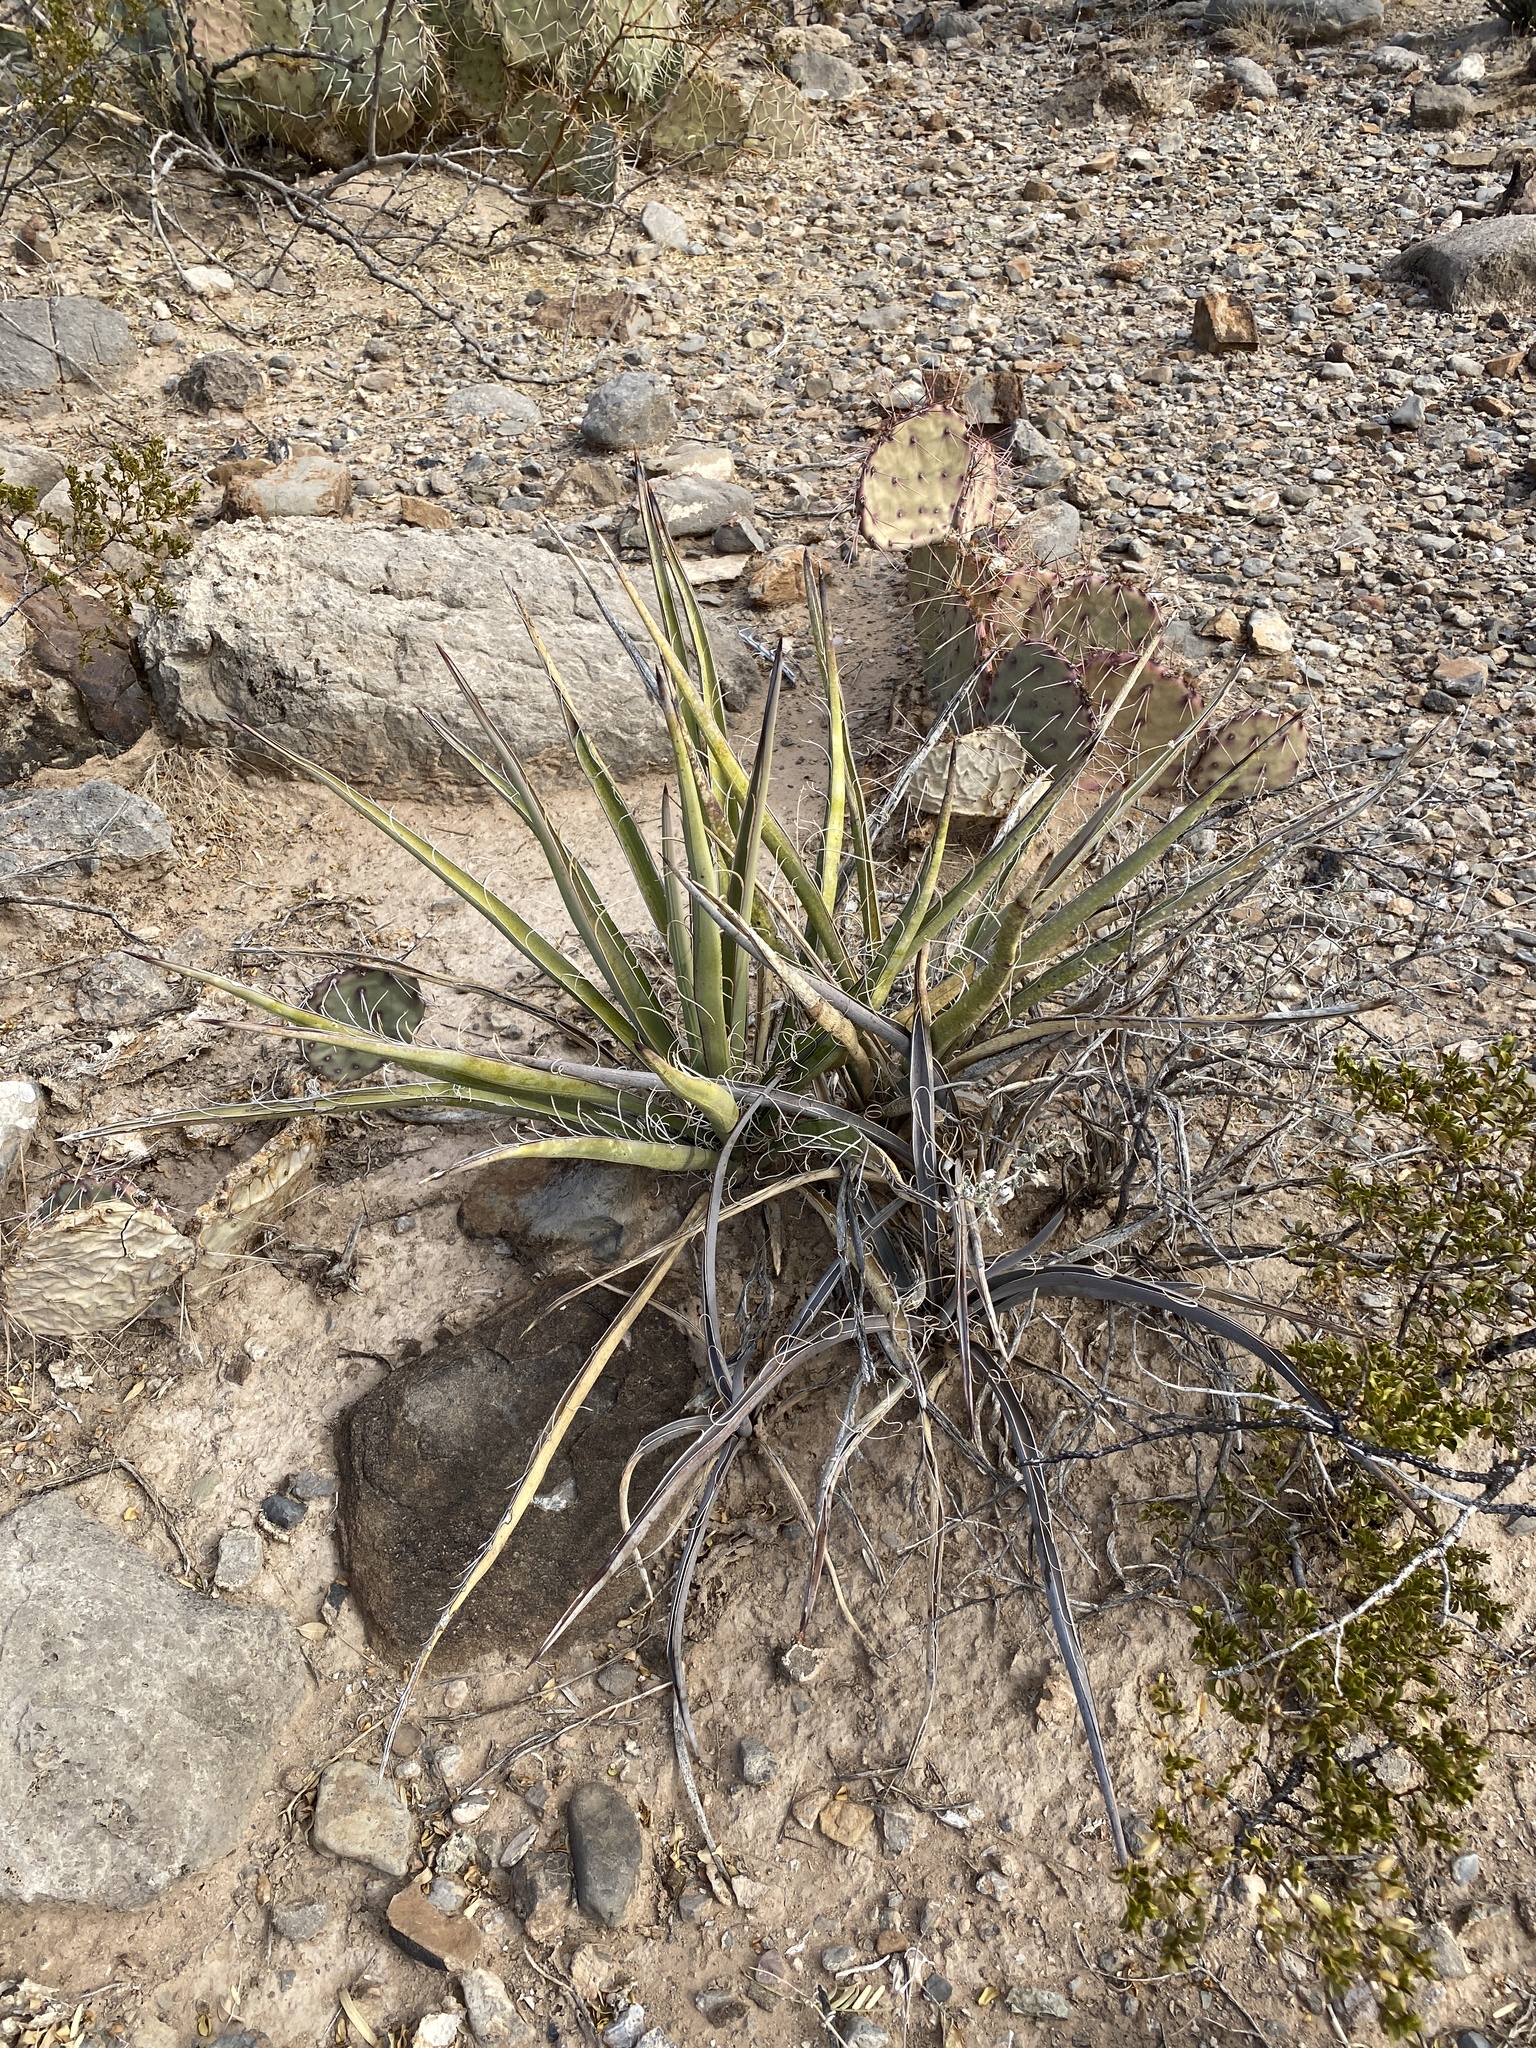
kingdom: Plantae
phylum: Tracheophyta
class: Liliopsida
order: Asparagales
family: Asparagaceae
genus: Yucca
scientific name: Yucca baccata
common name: Banana yucca
